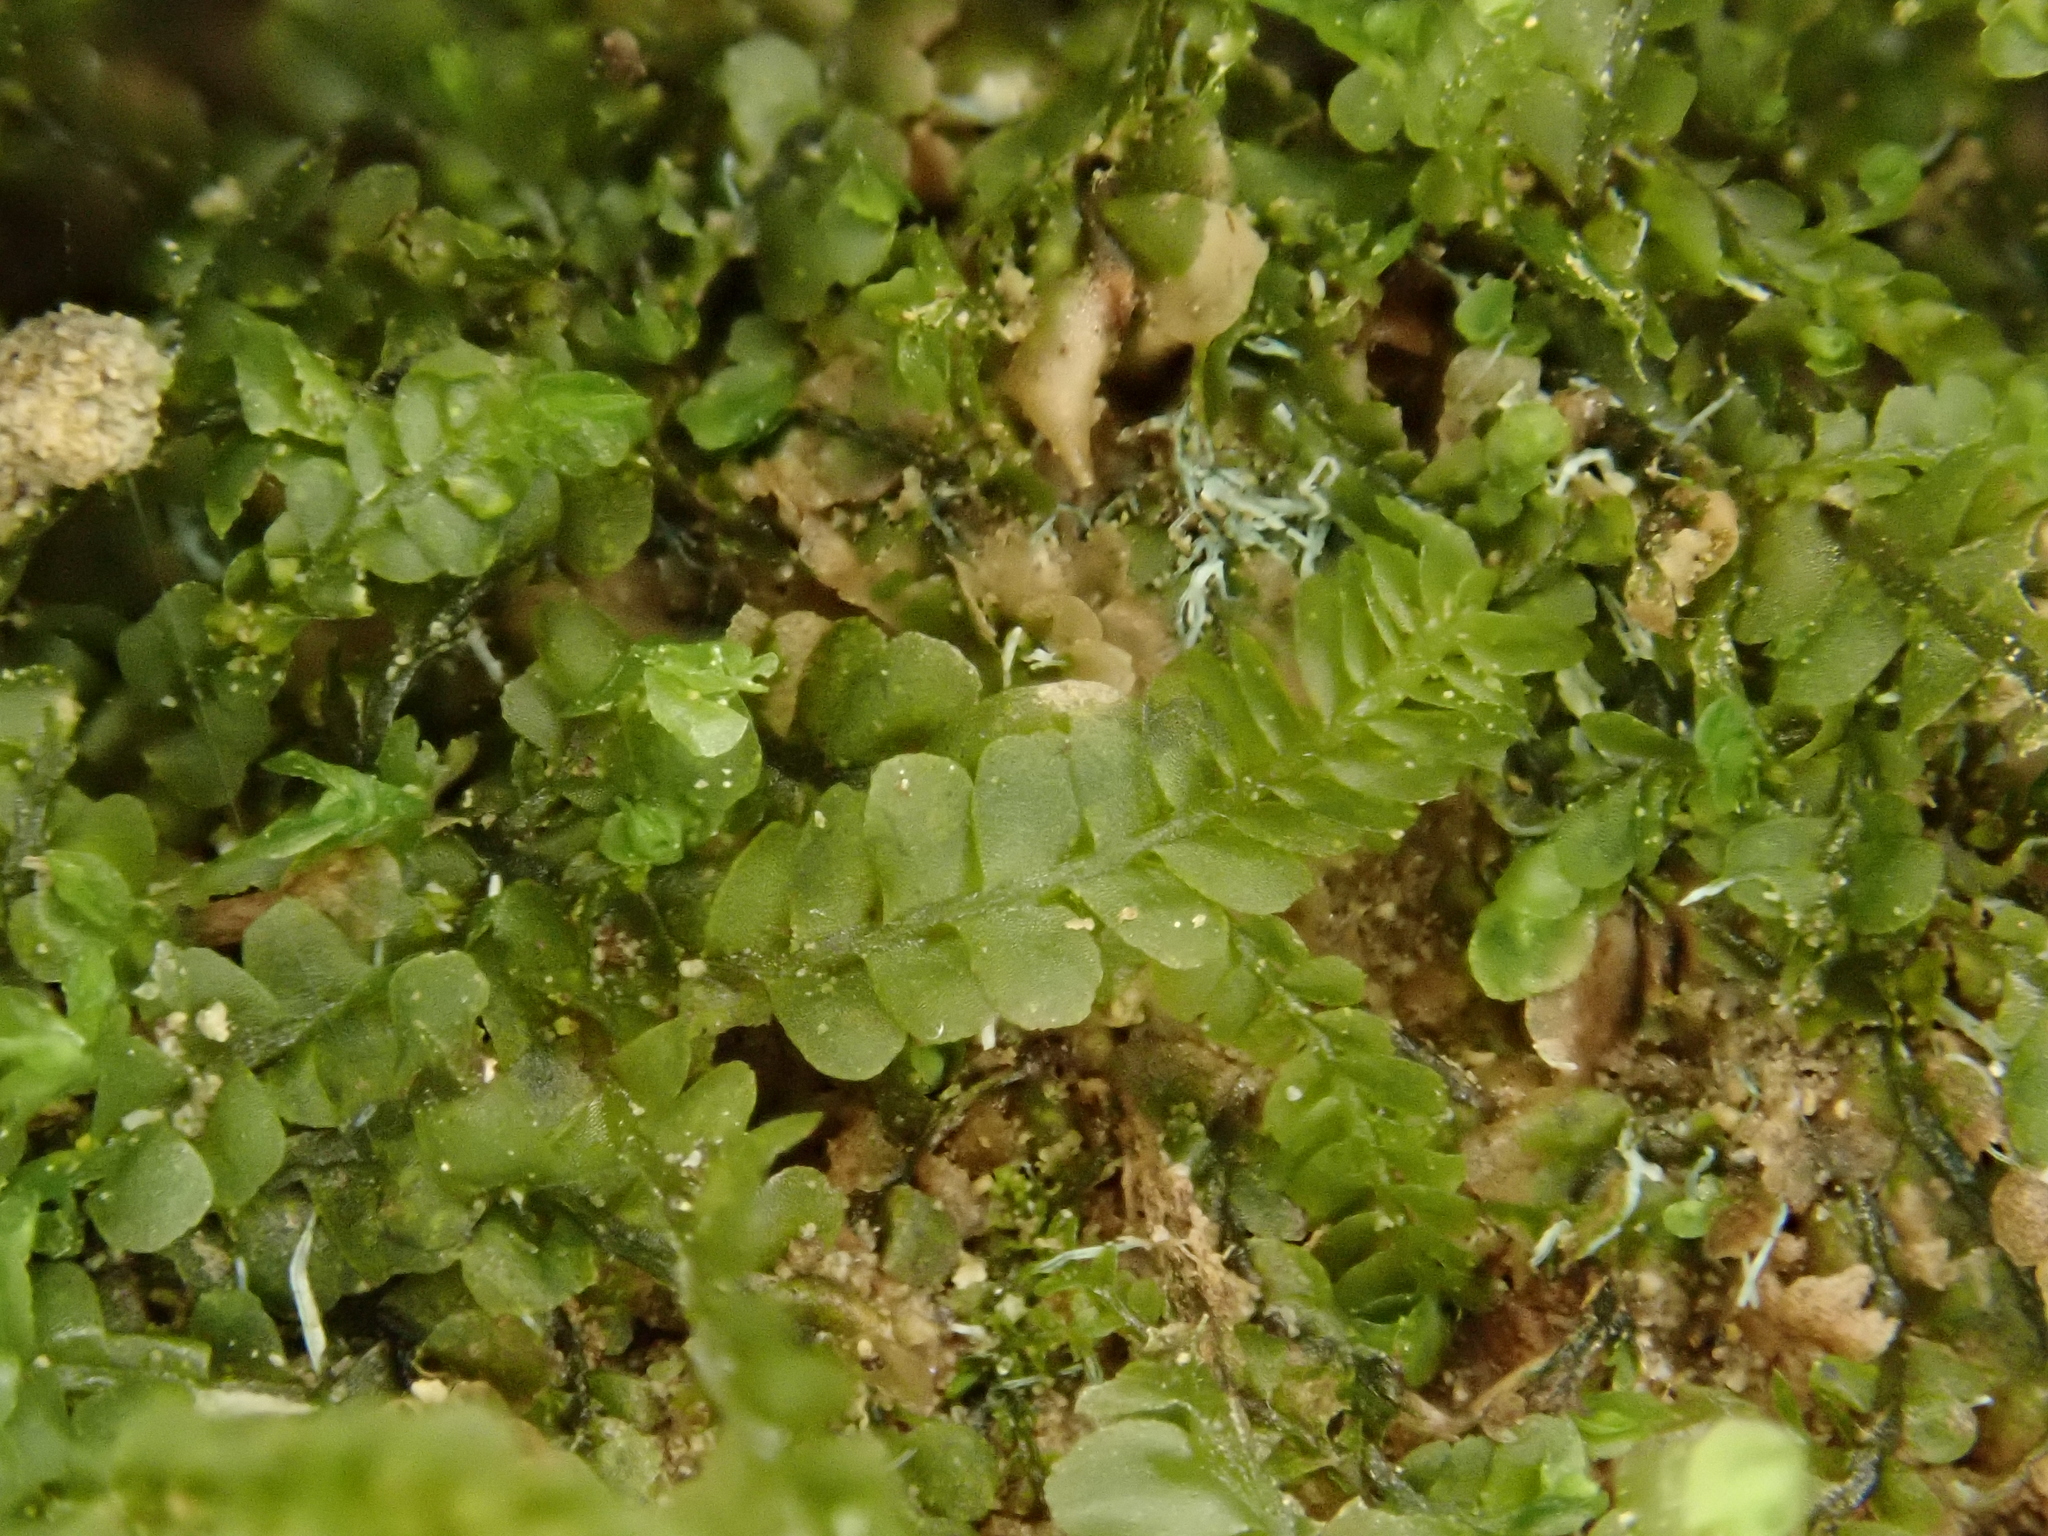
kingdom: Plantae
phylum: Marchantiophyta
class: Jungermanniopsida
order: Jungermanniales
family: Plagiochilaceae
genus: Pedinophyllum
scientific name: Pedinophyllum interruptum
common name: Craven featherwort
